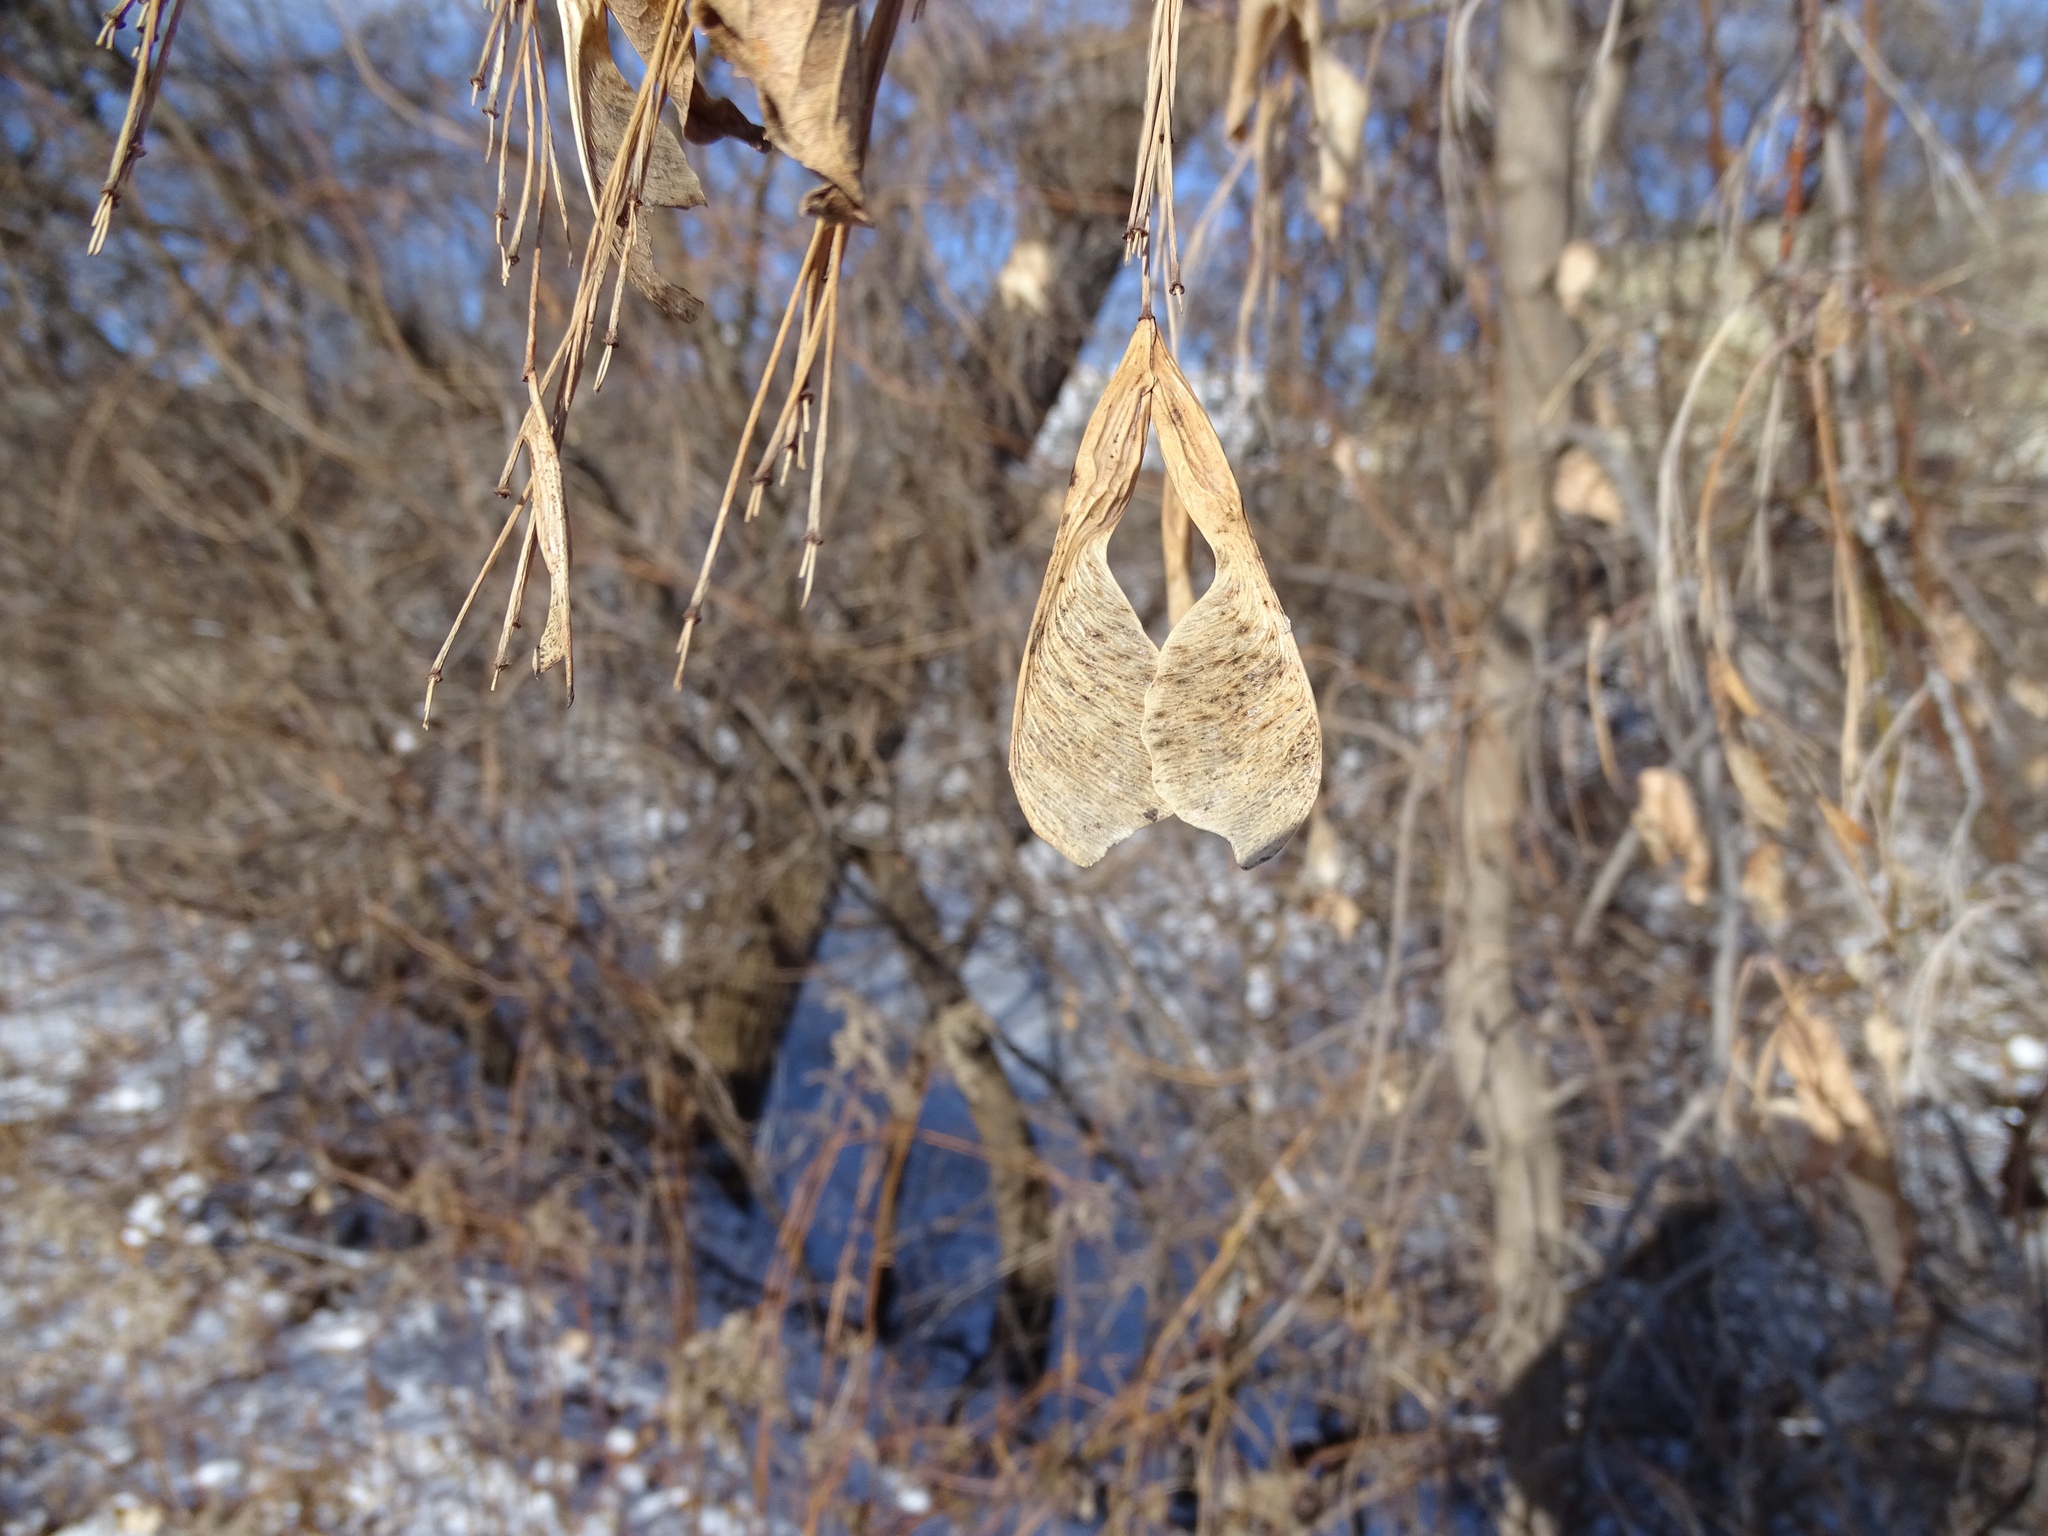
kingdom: Plantae
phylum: Tracheophyta
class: Magnoliopsida
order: Sapindales
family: Sapindaceae
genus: Acer
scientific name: Acer negundo
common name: Ashleaf maple
